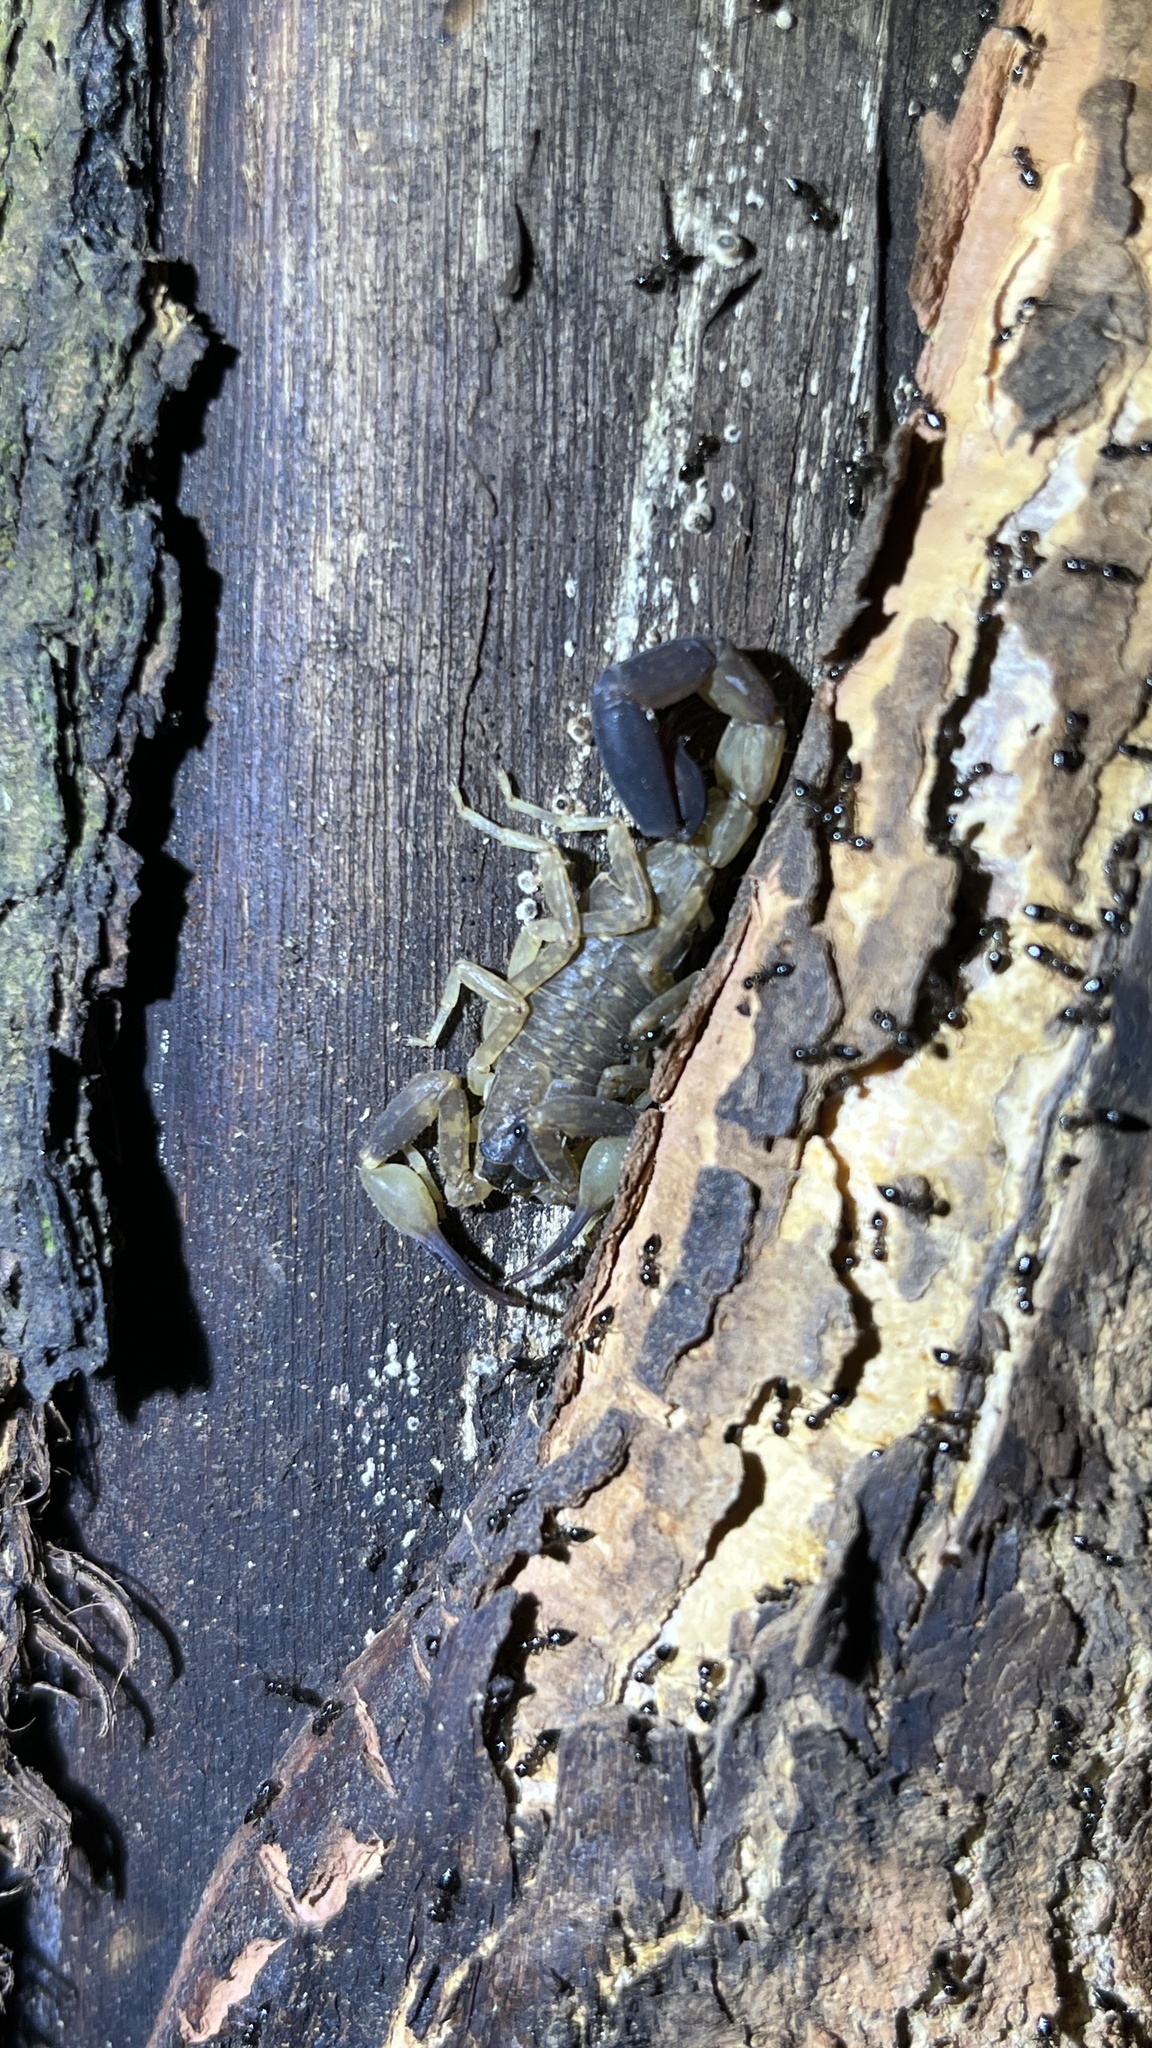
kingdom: Animalia
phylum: Arthropoda
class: Arachnida
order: Scorpiones
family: Buthidae
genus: Lychas
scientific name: Lychas mucronatus
